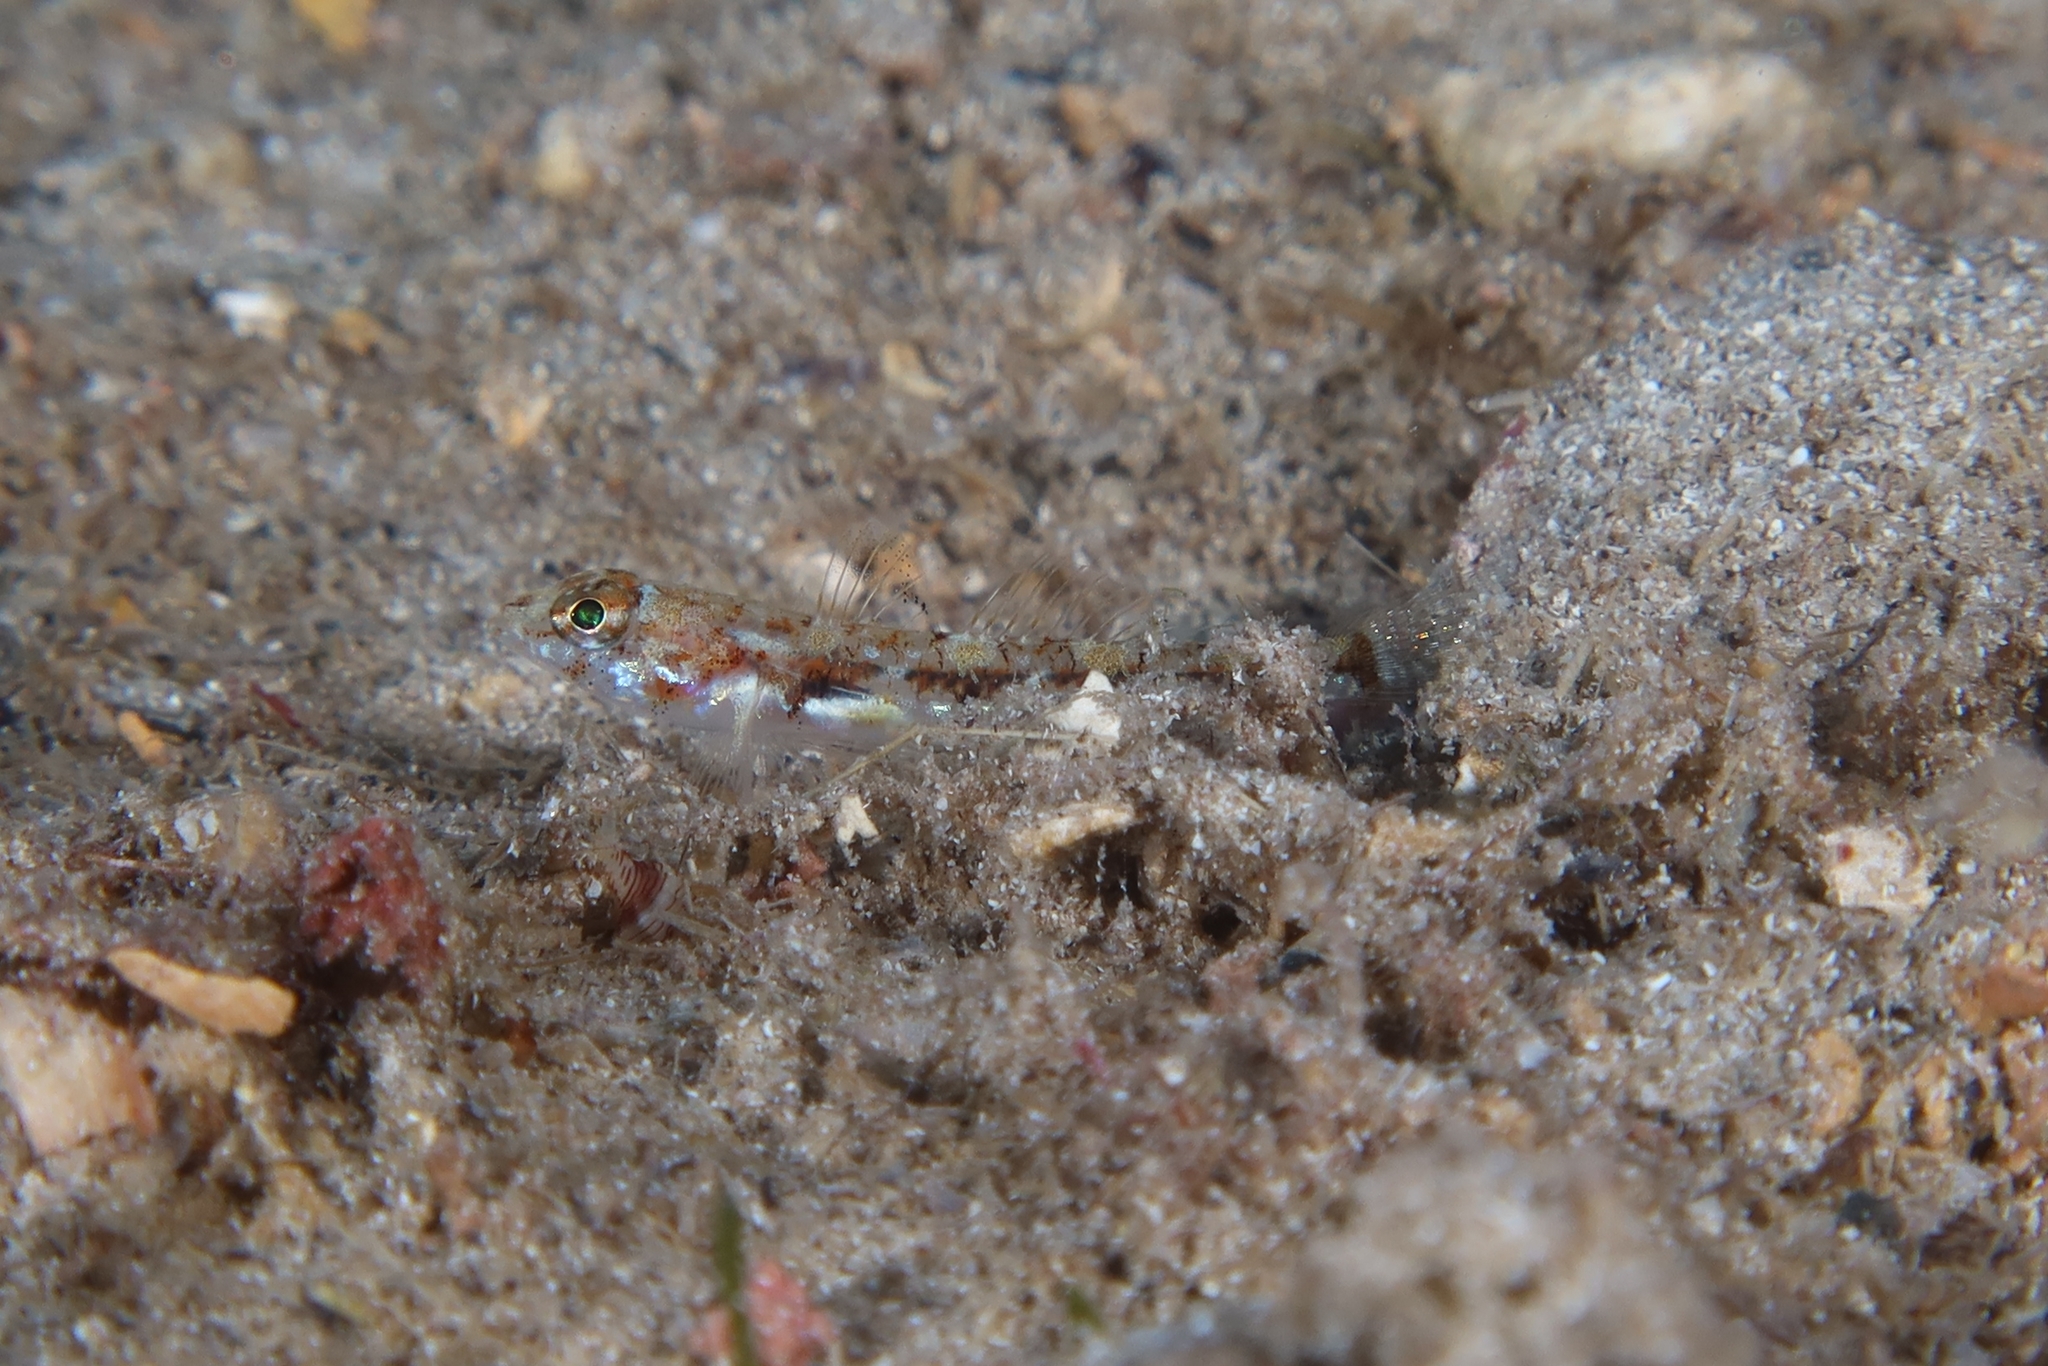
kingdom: Animalia
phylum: Chordata
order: Perciformes
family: Gobiidae
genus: Buenia
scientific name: Buenia affinis
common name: De buen's goby
